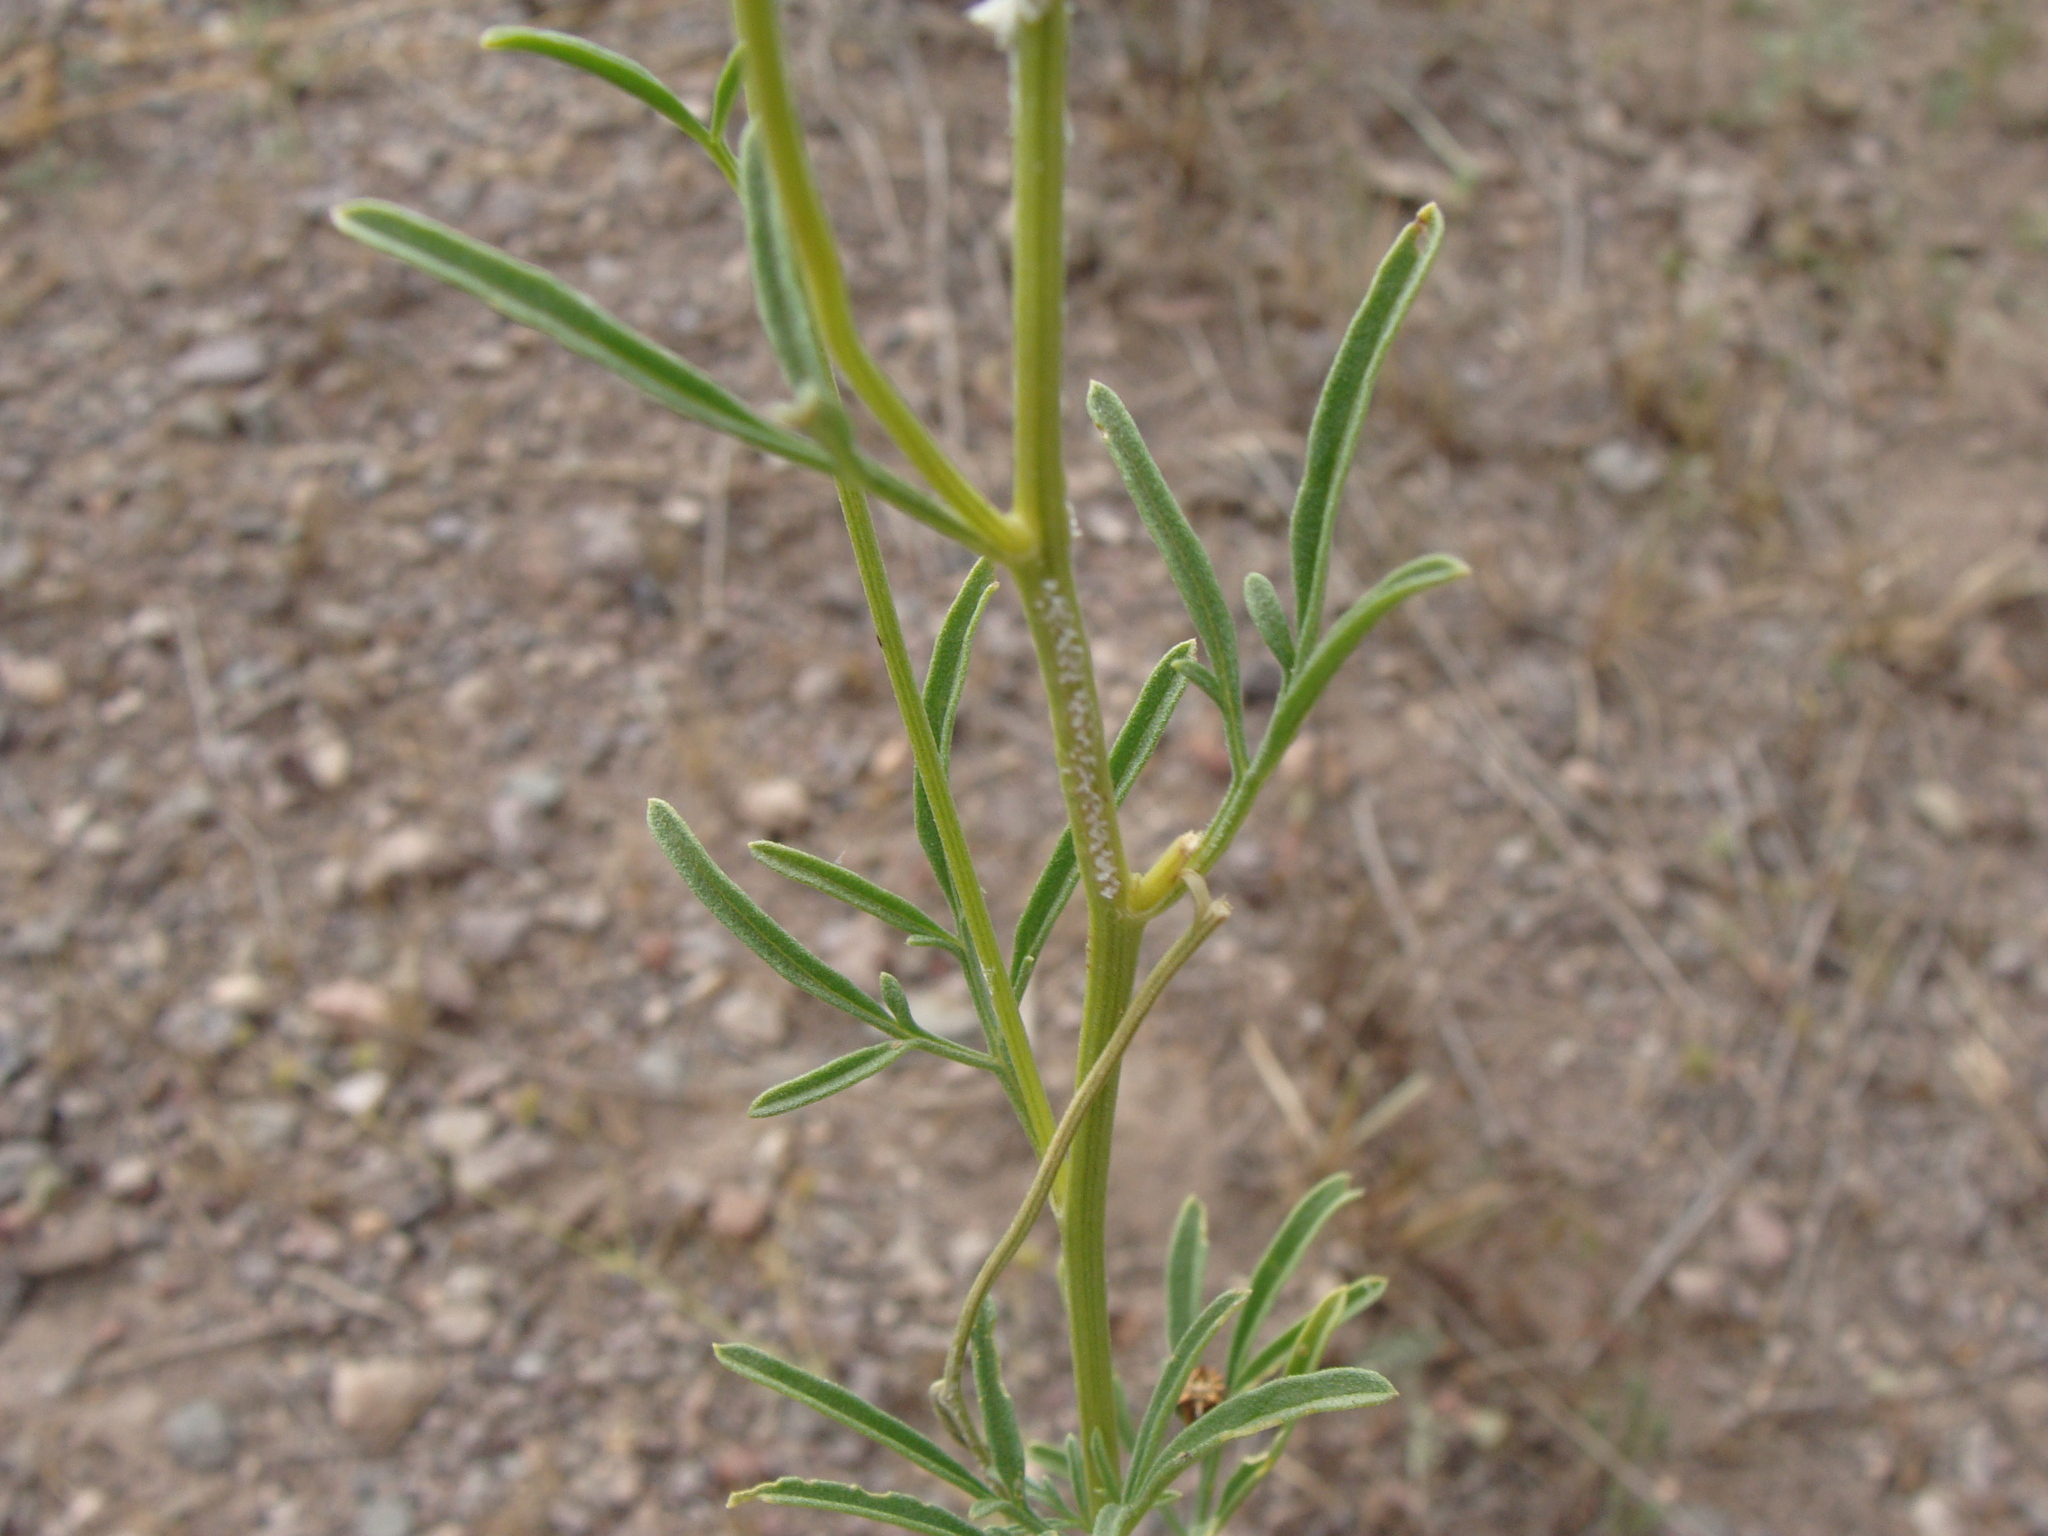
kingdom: Plantae
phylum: Tracheophyta
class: Magnoliopsida
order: Asterales
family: Asteraceae
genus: Hymenothrix
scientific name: Hymenothrix wislizeni
